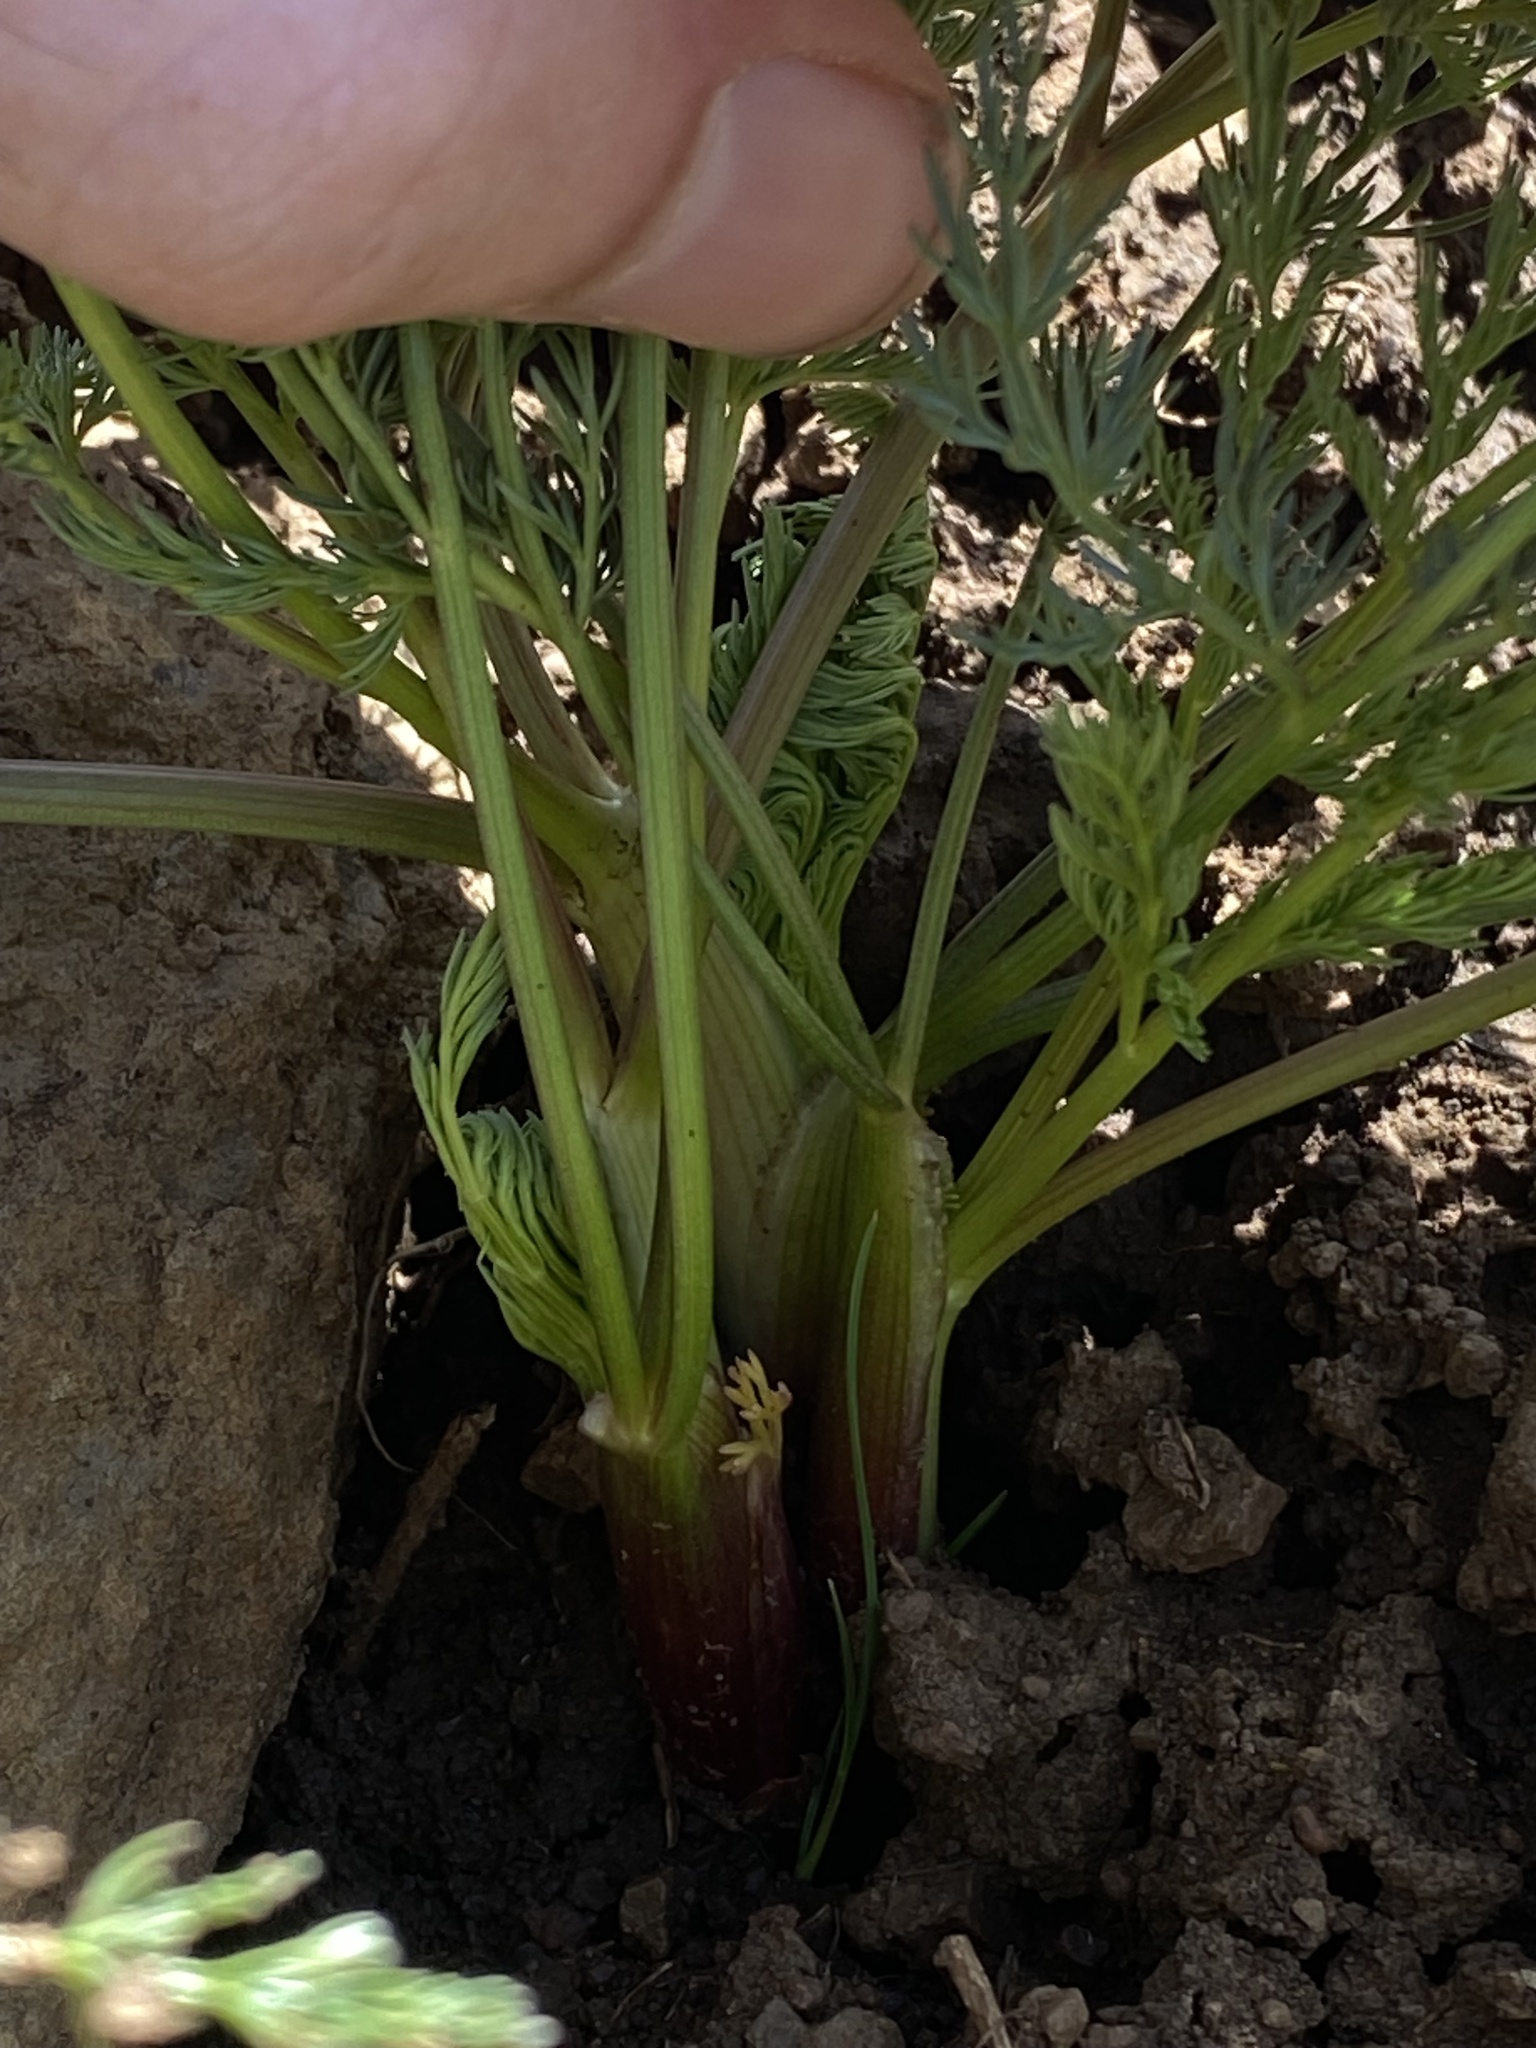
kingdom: Plantae
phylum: Tracheophyta
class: Magnoliopsida
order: Apiales
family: Apiaceae
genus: Lomatium
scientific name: Lomatium filicinum
